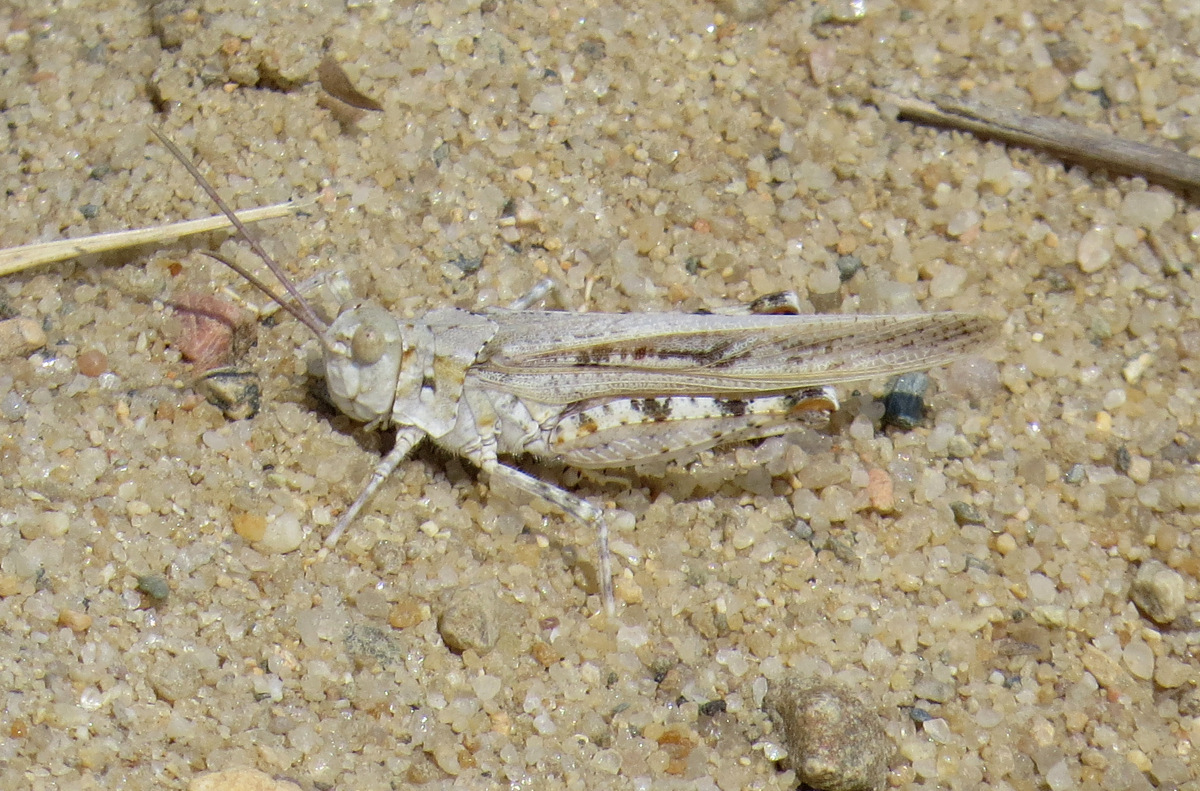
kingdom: Animalia
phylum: Arthropoda
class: Insecta
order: Orthoptera
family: Acrididae
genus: Trimerotropis
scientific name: Trimerotropis maritima
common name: Seaside locust
